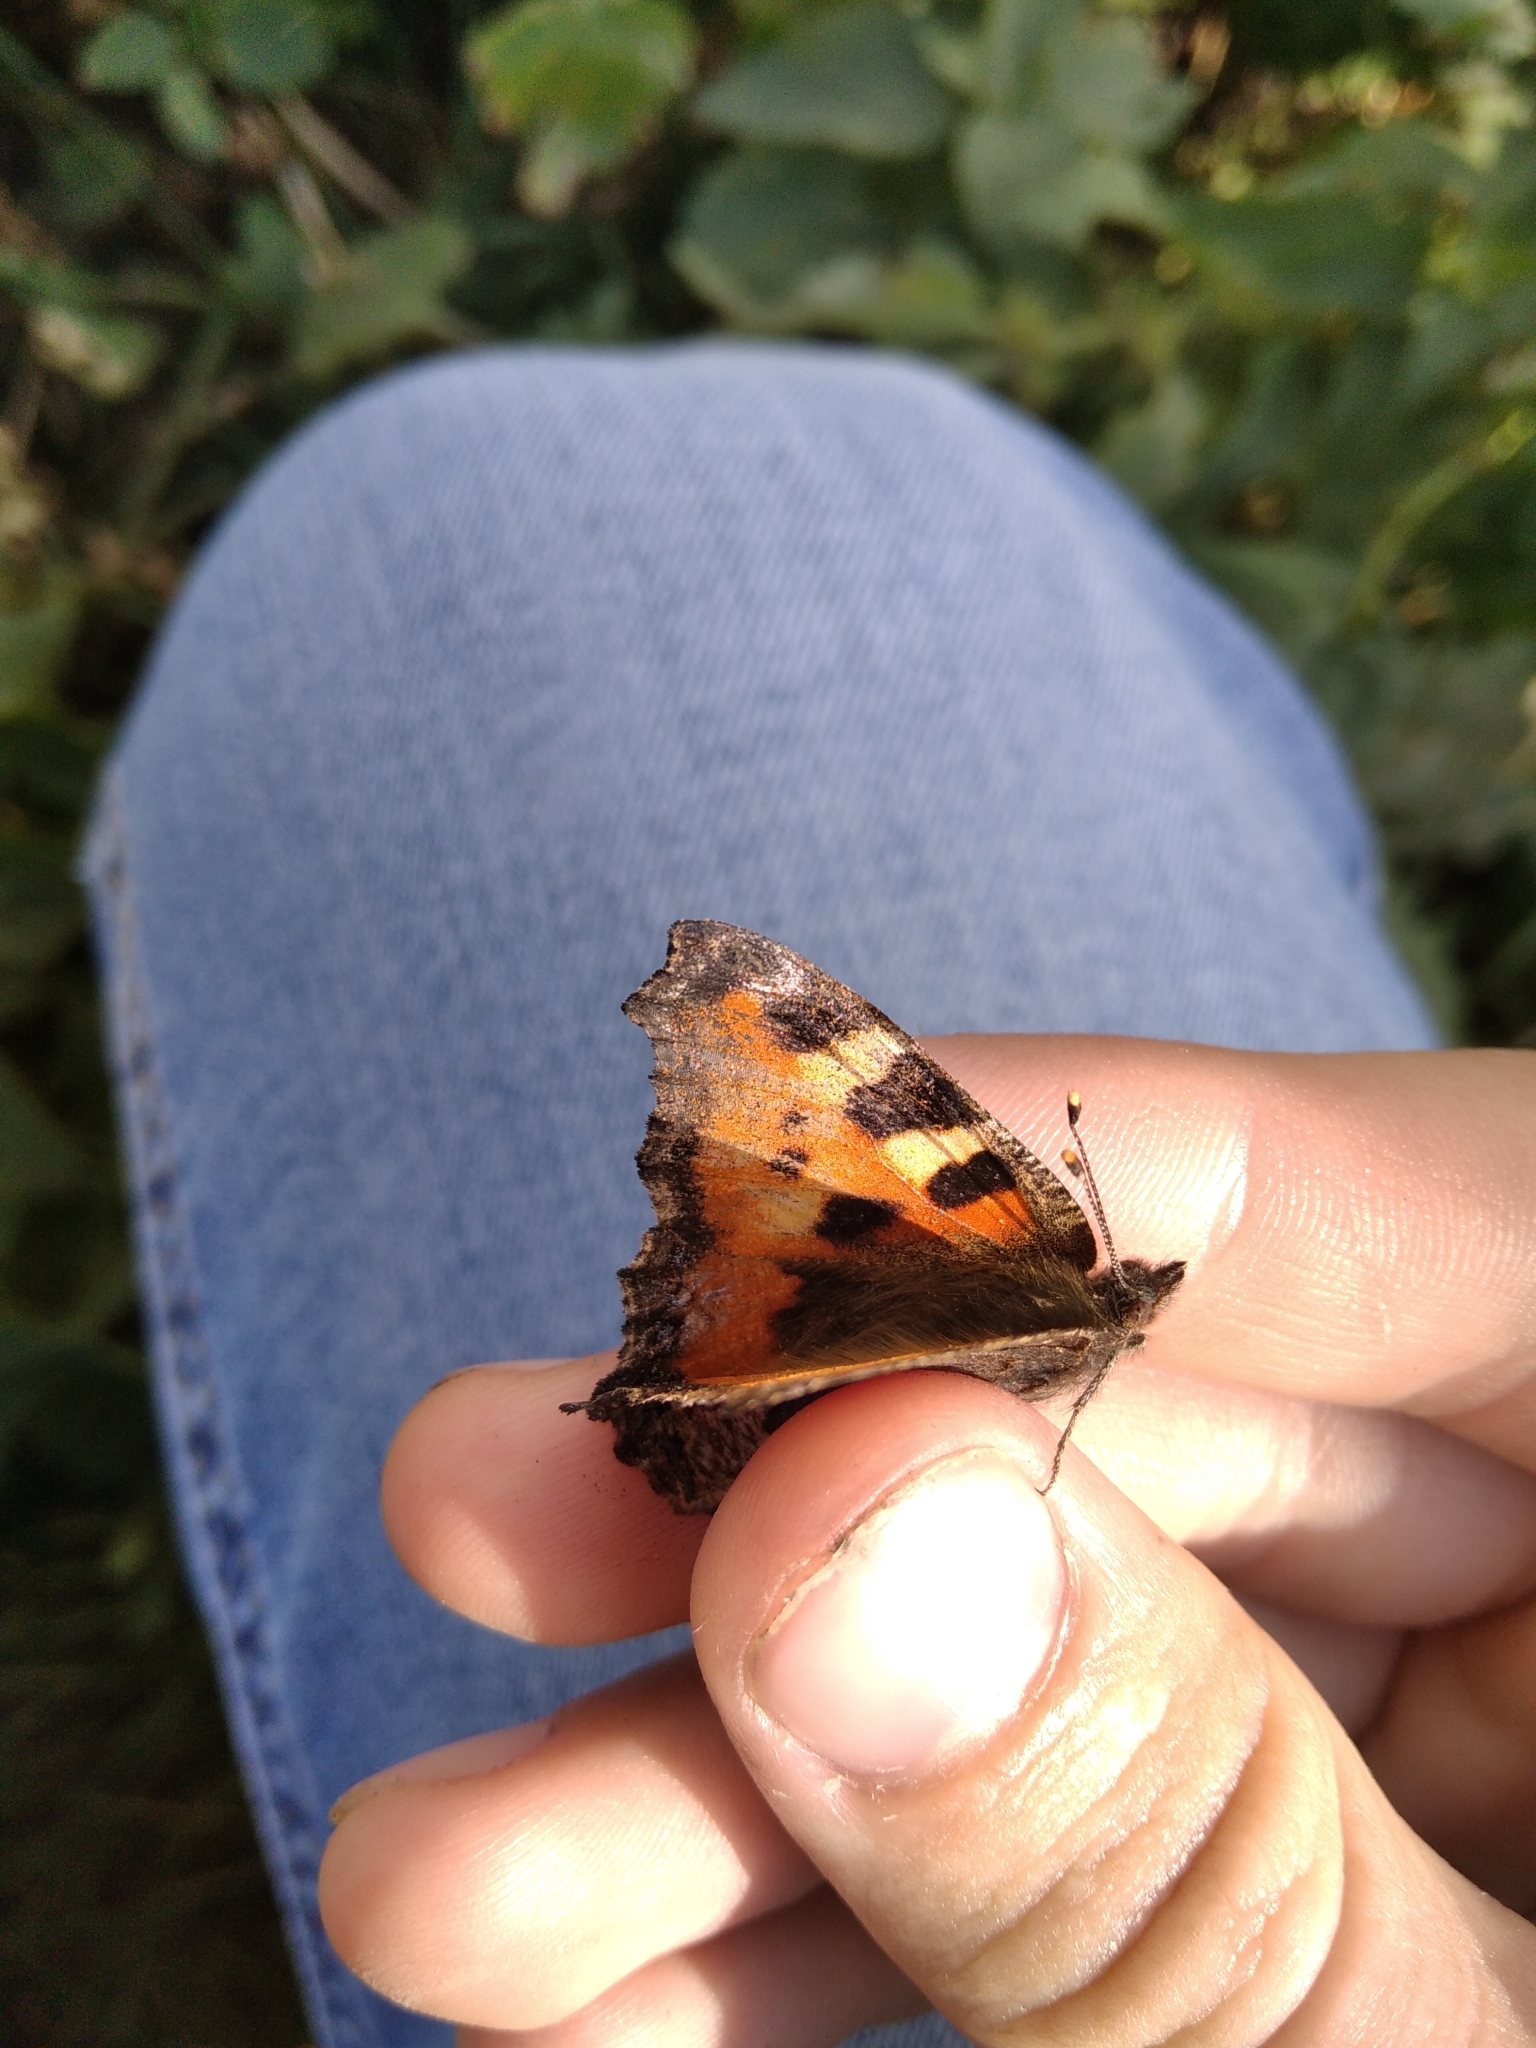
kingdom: Animalia
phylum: Arthropoda
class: Insecta
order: Lepidoptera
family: Nymphalidae
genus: Aglais
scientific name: Aglais urticae
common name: Small tortoiseshell
